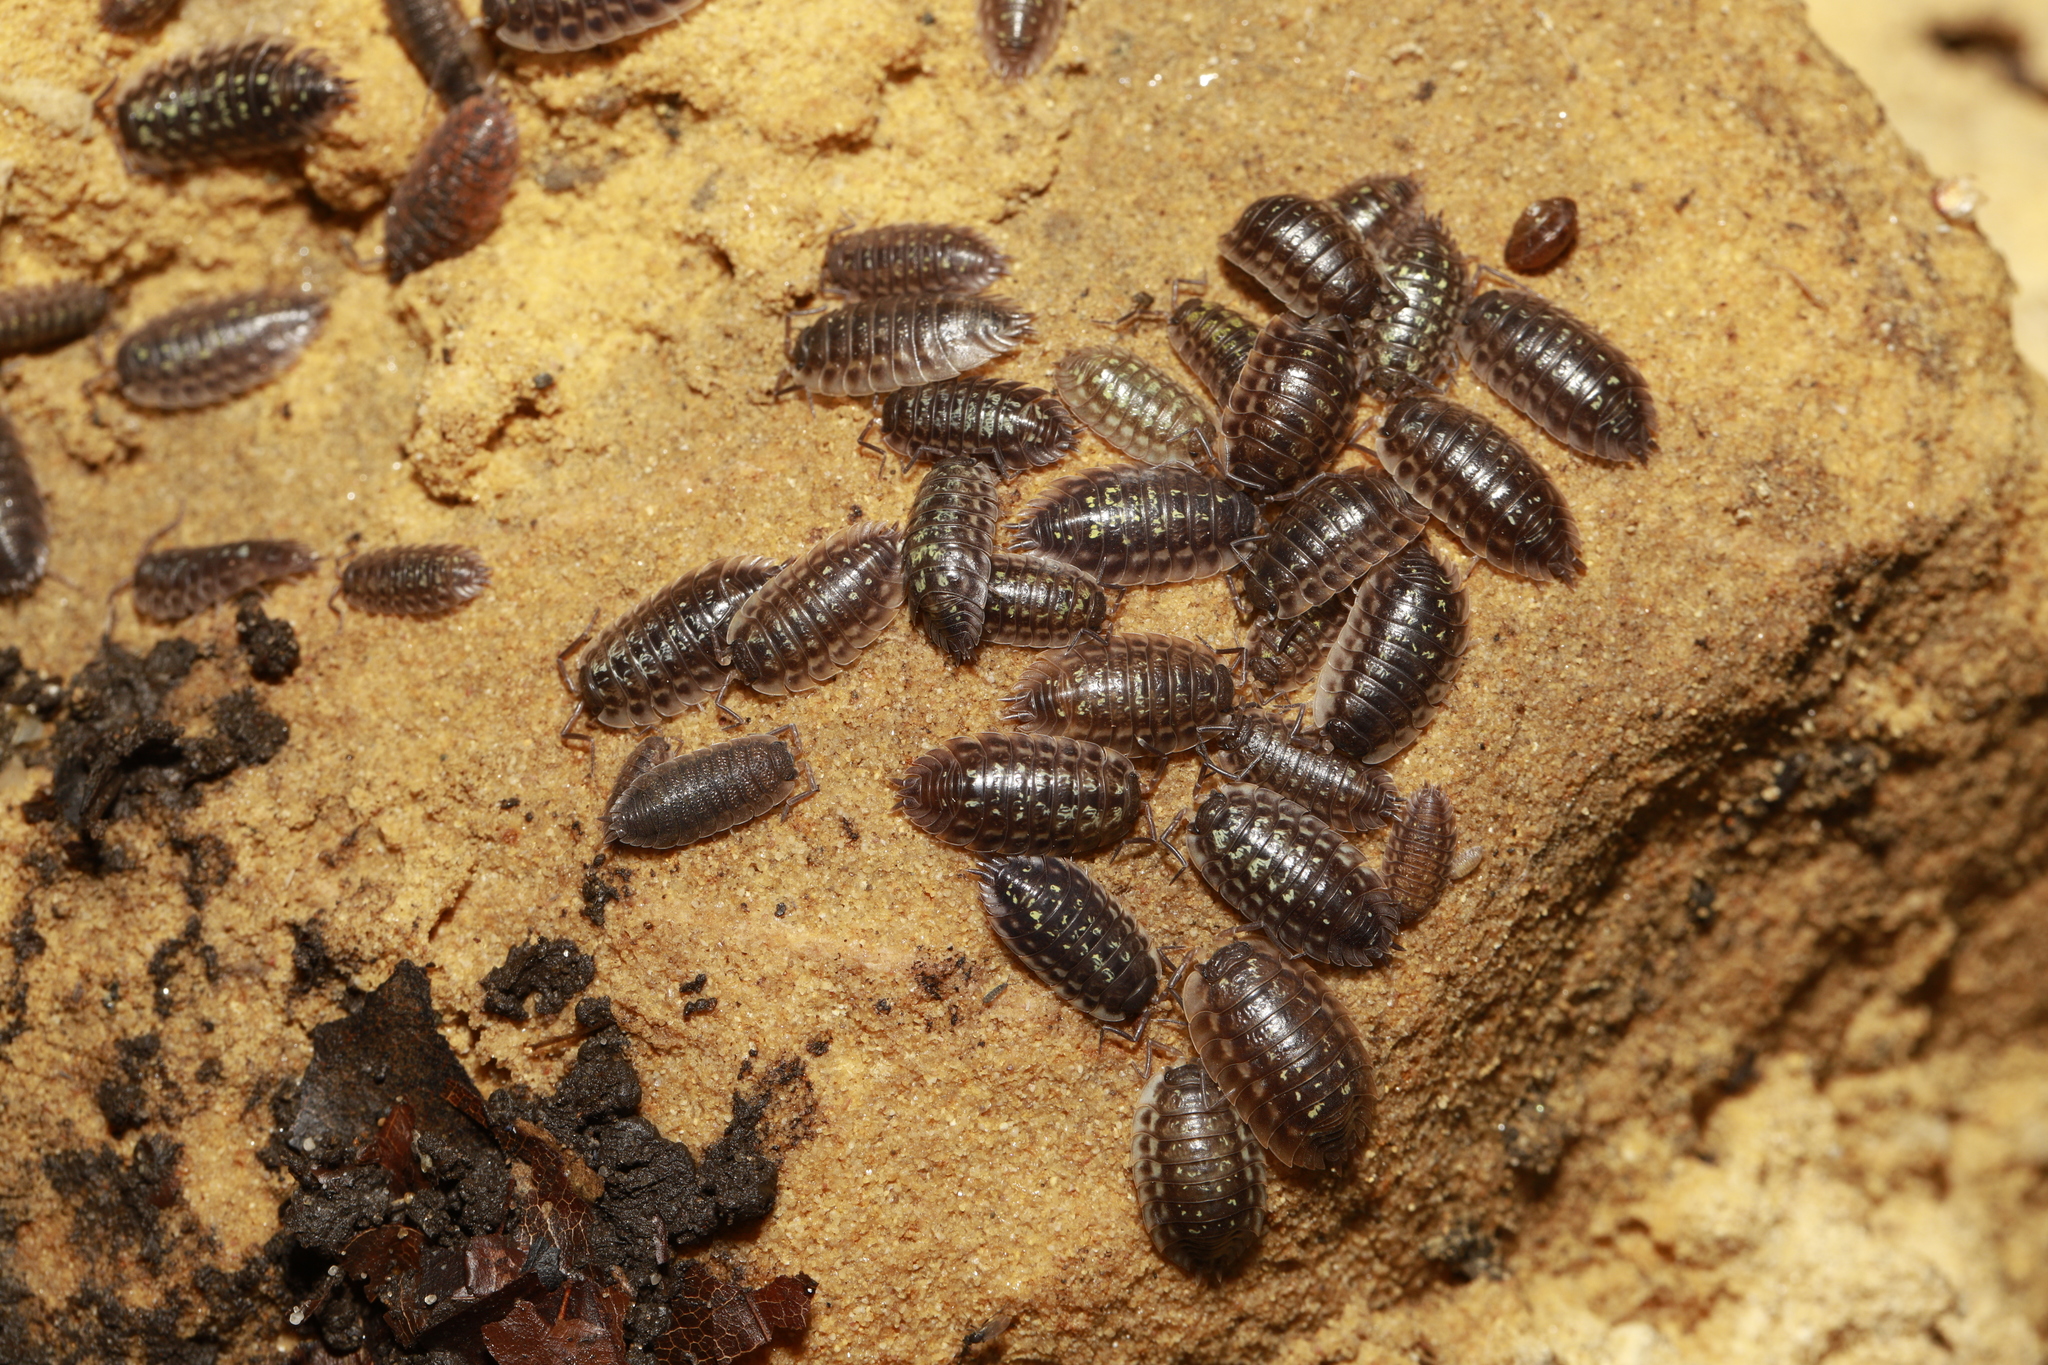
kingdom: Animalia
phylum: Arthropoda
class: Malacostraca
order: Isopoda
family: Oniscidae
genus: Oniscus
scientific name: Oniscus asellus
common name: Common shiny woodlouse
